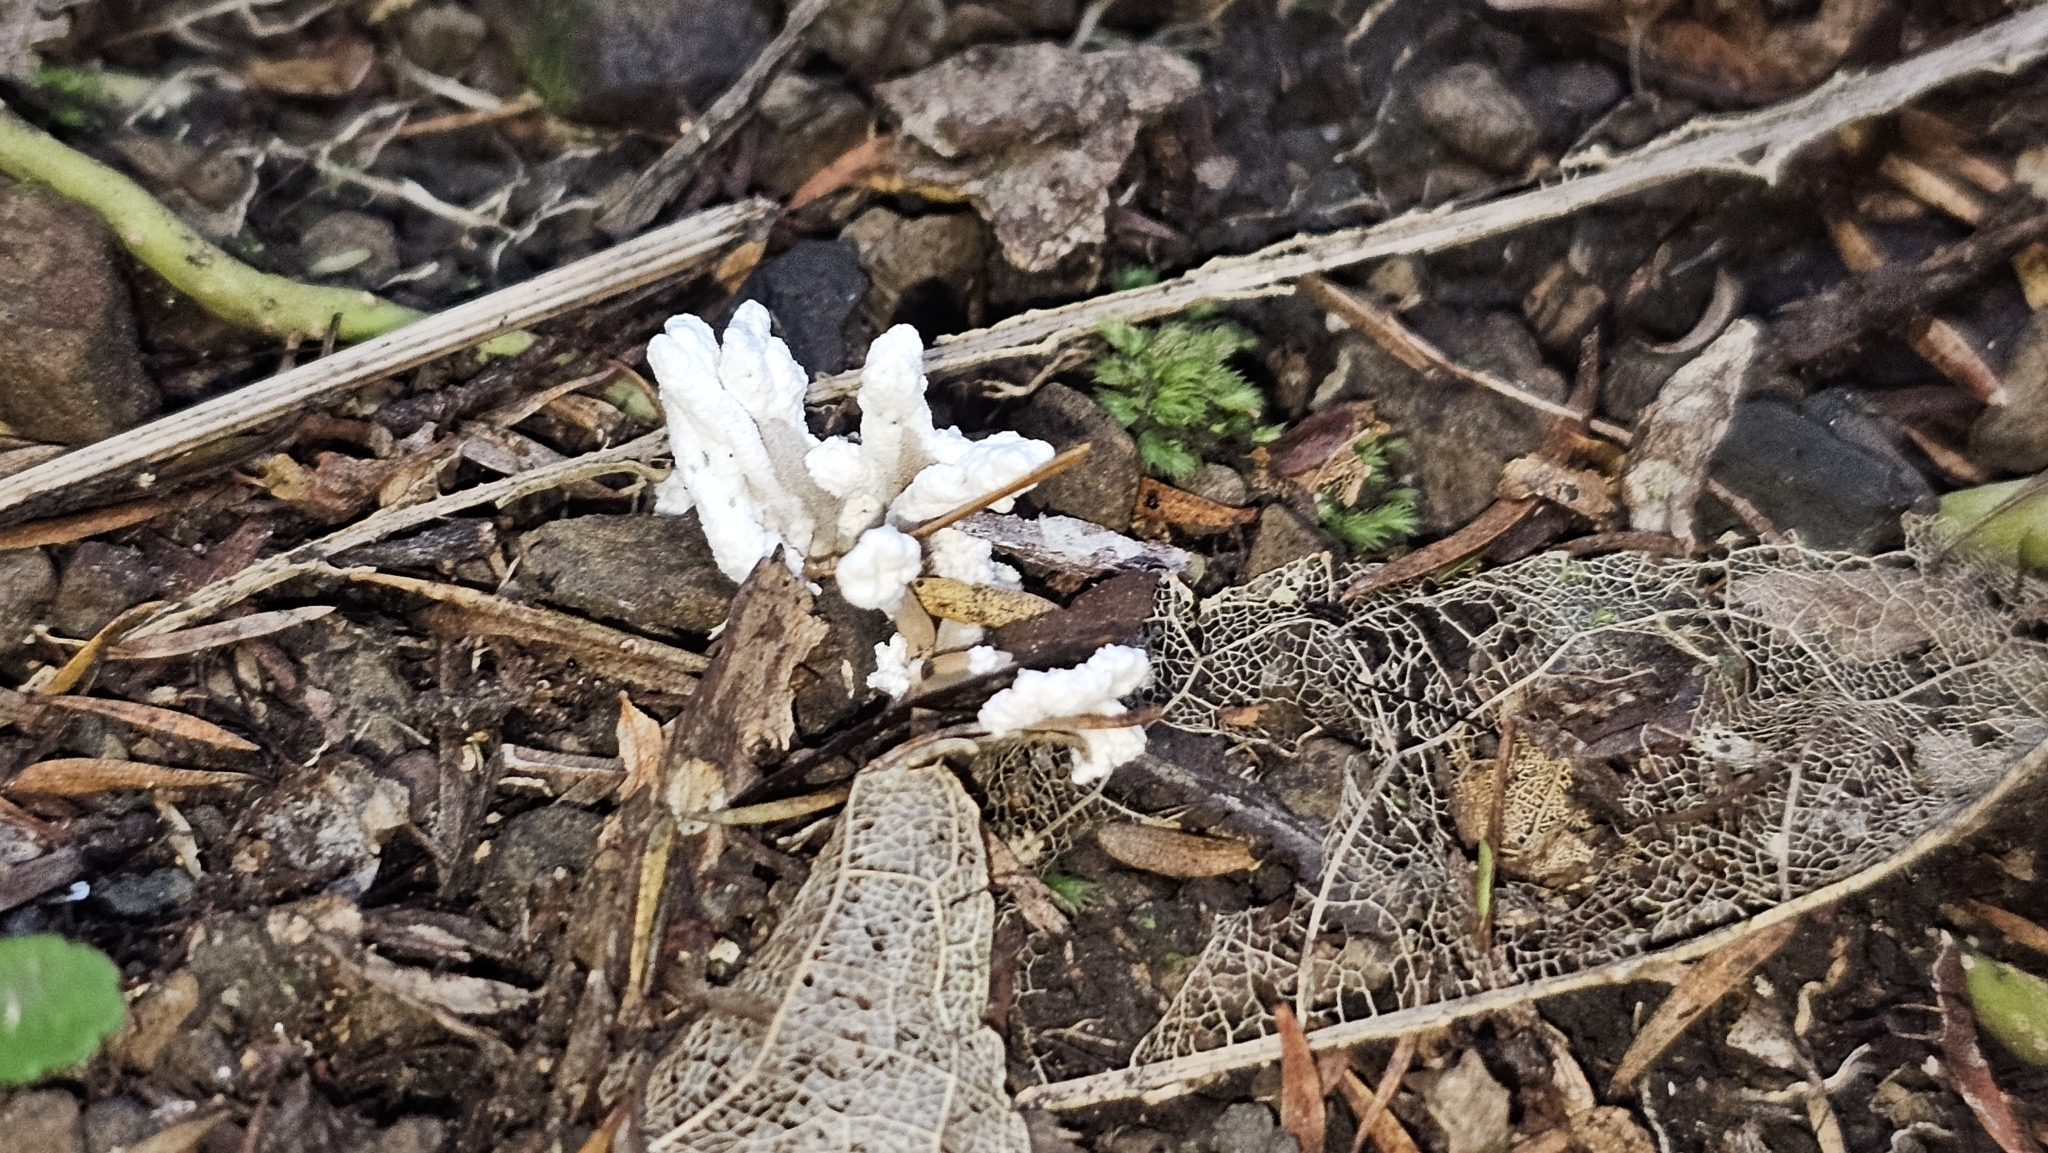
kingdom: Fungi
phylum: Ascomycota
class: Sordariomycetes
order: Hypocreales
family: Cordycipitaceae
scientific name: Cordycipitaceae
